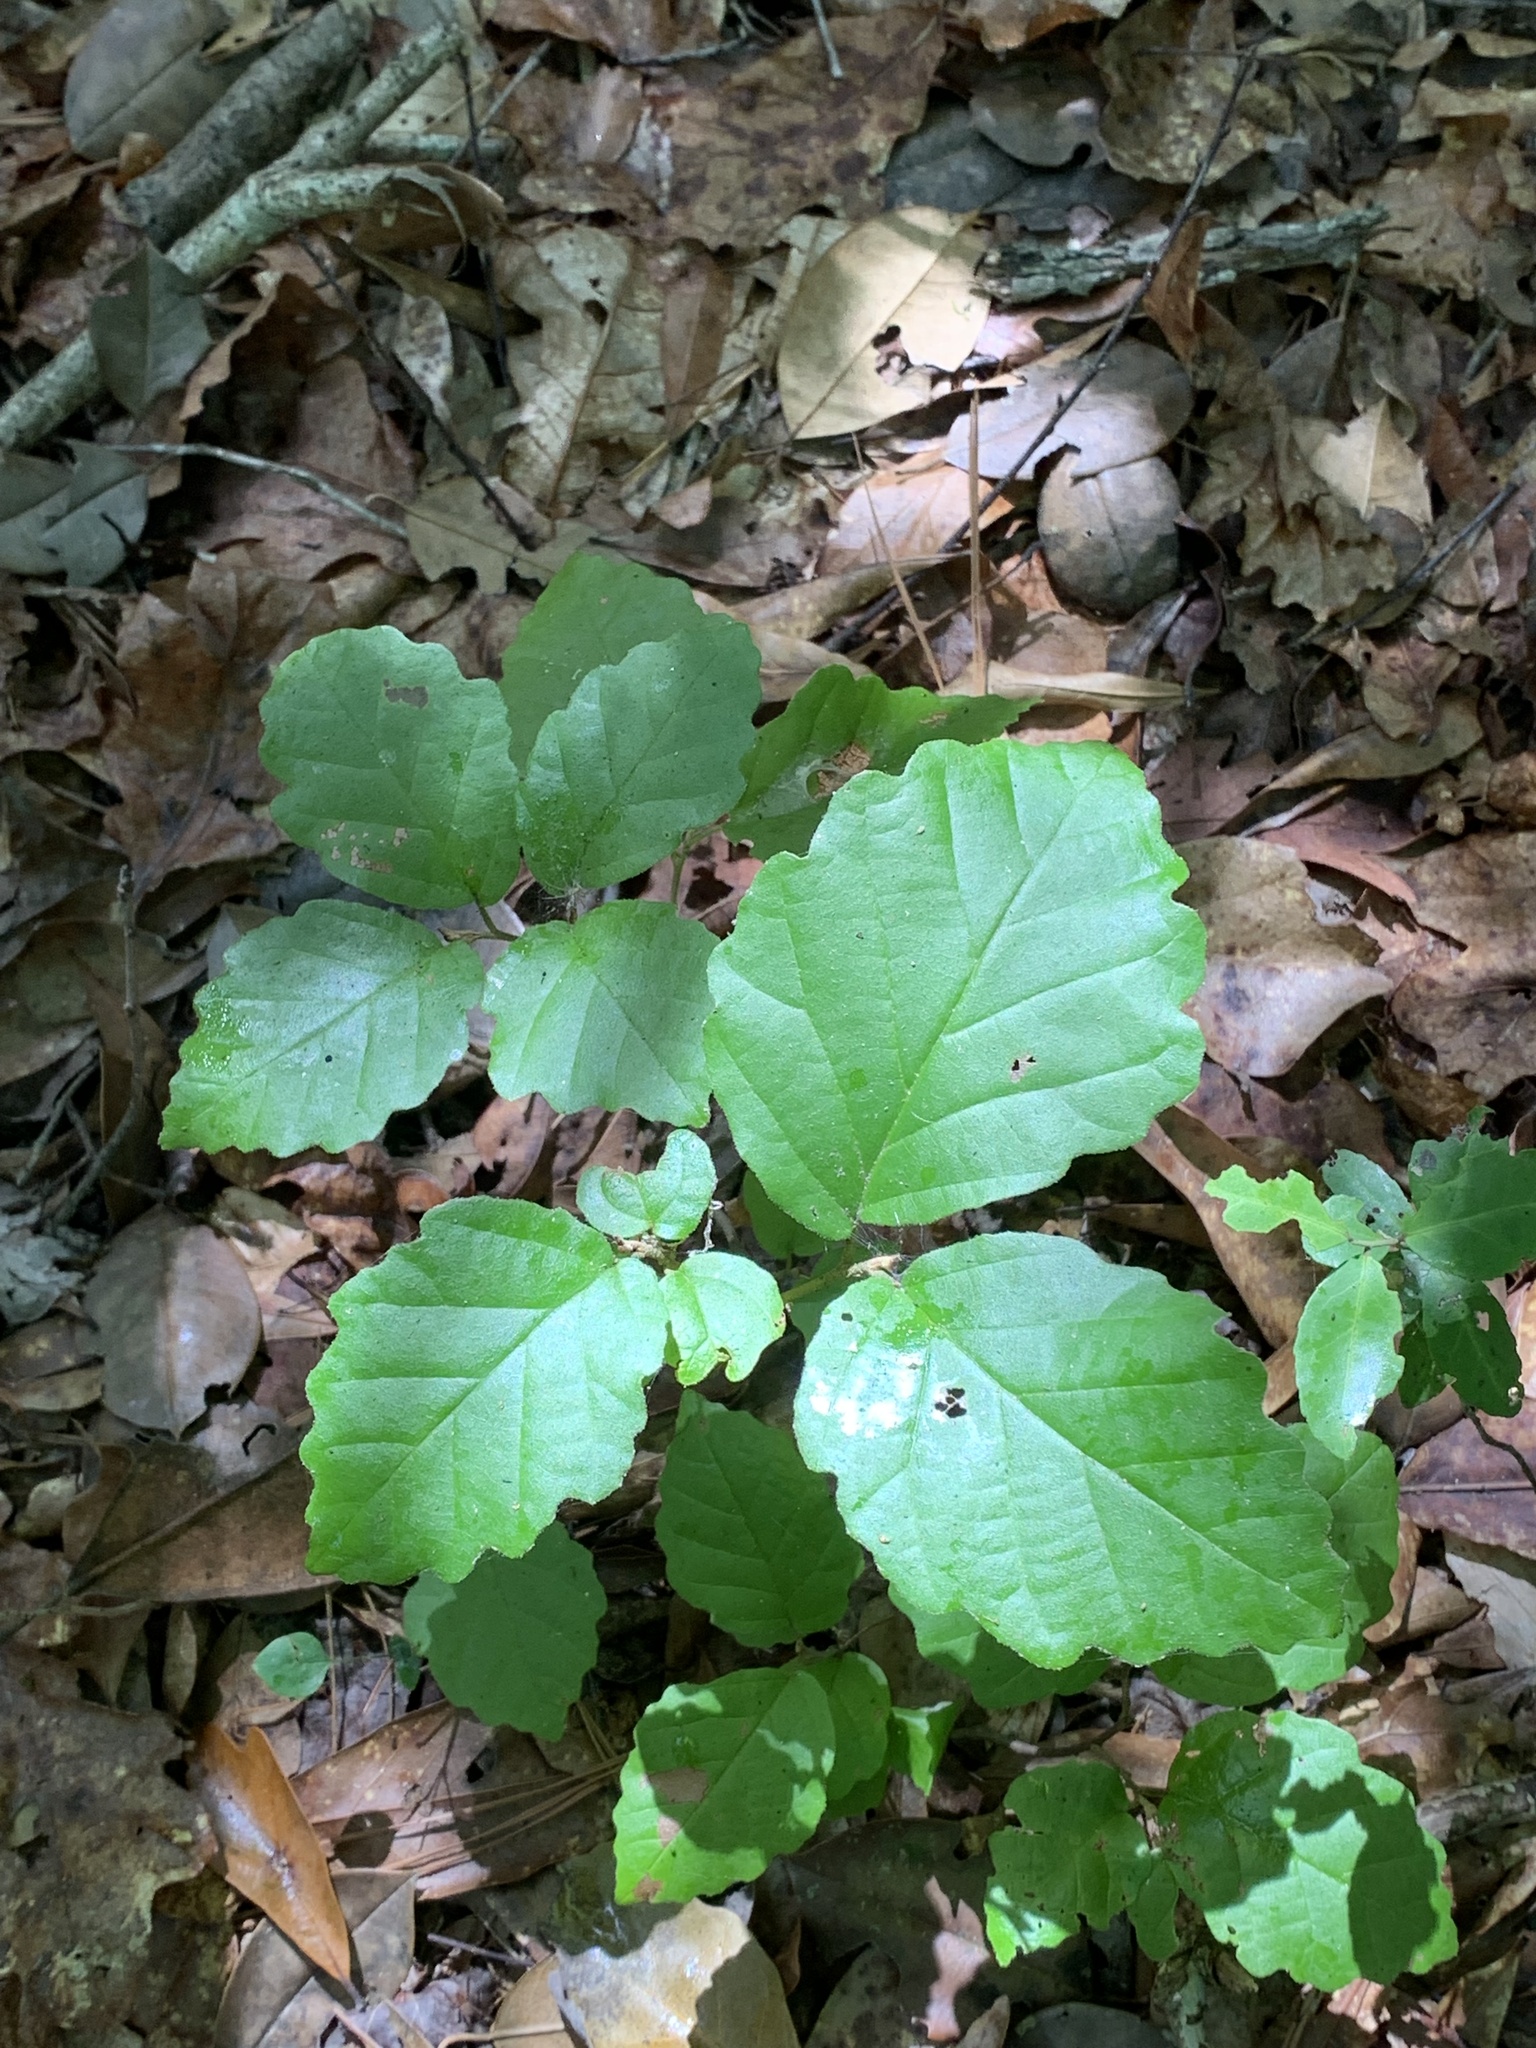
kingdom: Plantae
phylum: Tracheophyta
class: Magnoliopsida
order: Saxifragales
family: Hamamelidaceae
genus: Hamamelis
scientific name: Hamamelis virginiana
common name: Witch-hazel
